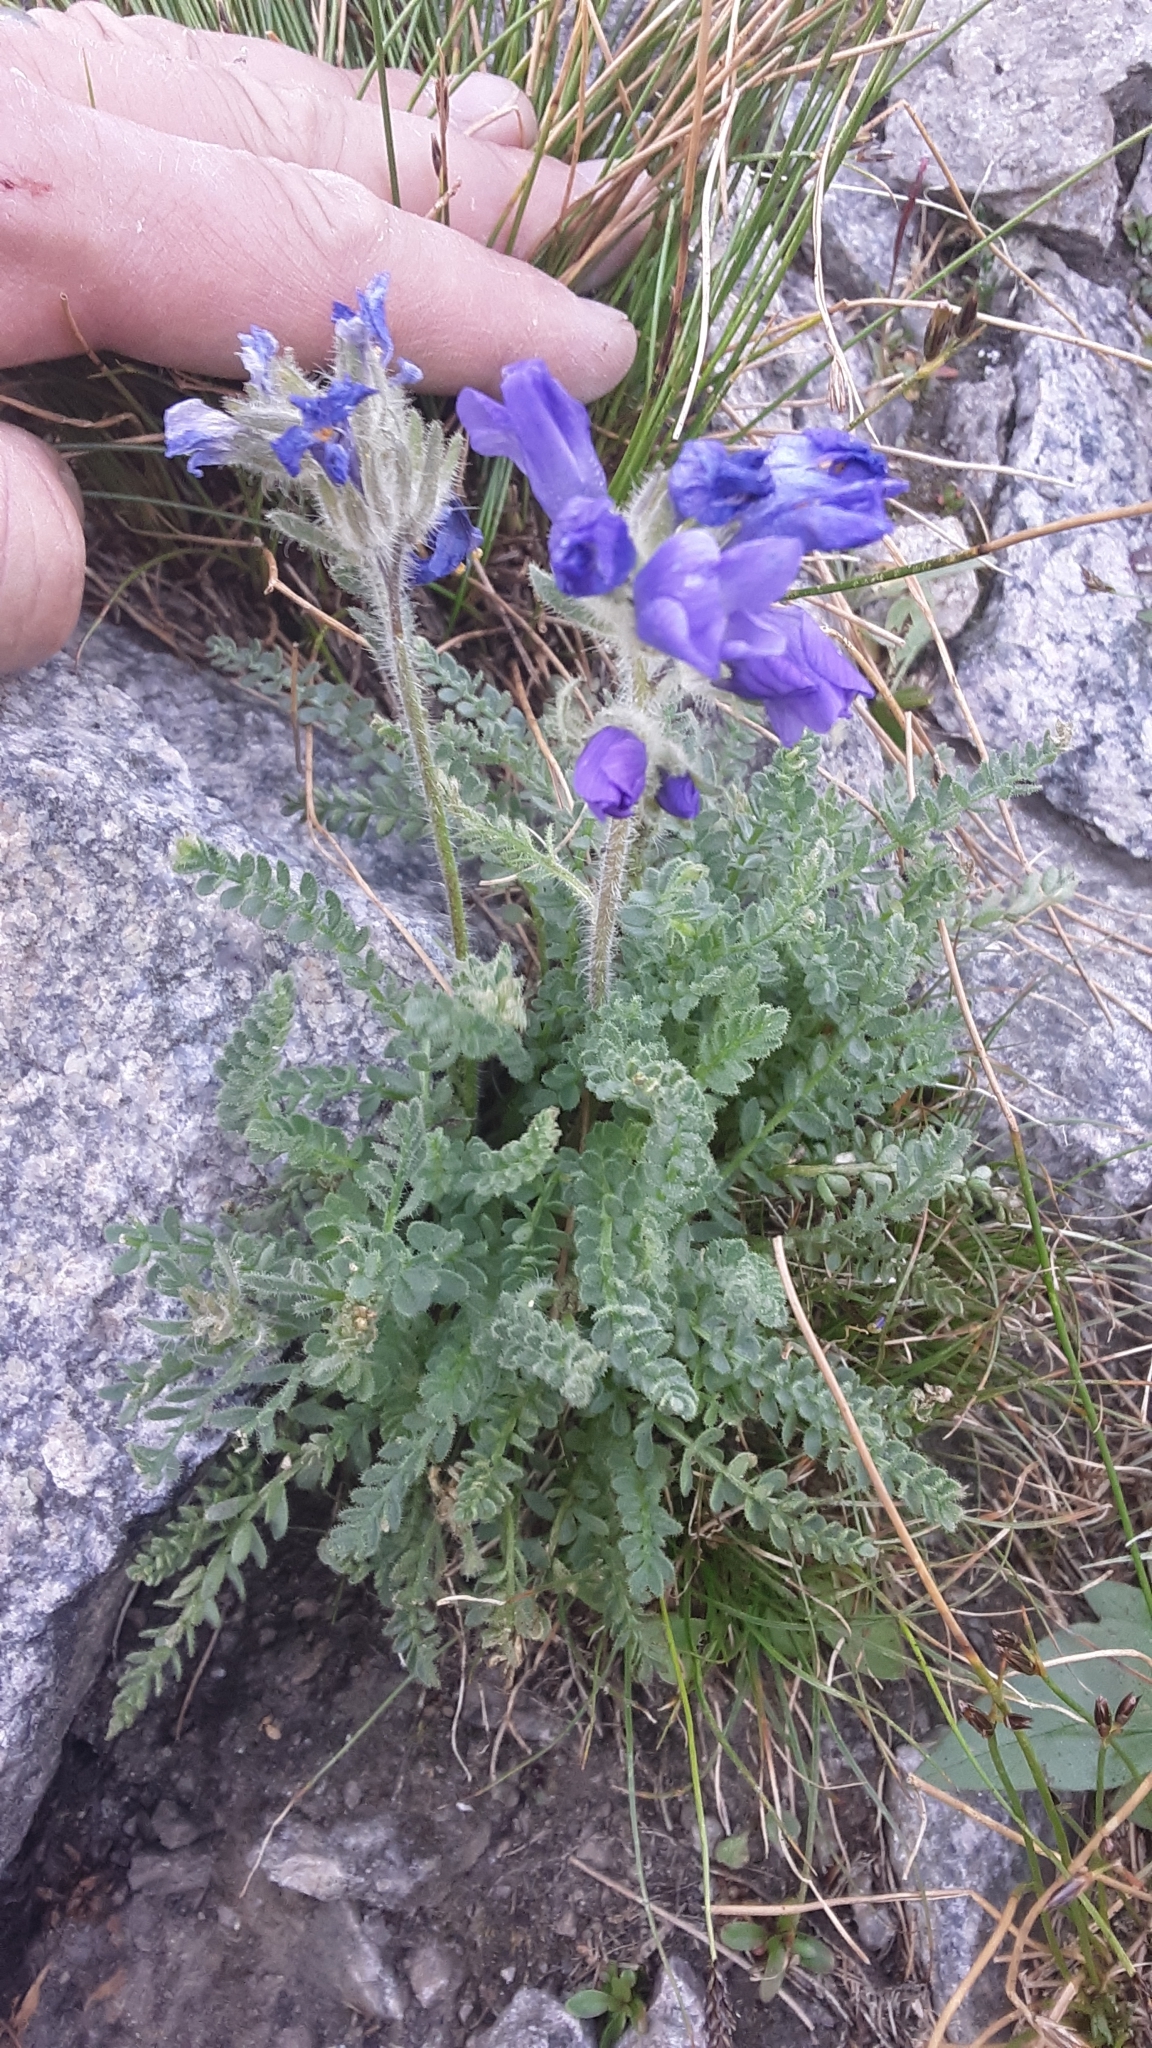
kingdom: Plantae
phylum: Tracheophyta
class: Magnoliopsida
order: Ericales
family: Polemoniaceae
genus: Polemonium
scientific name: Polemonium viscosum
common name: Skunk jacob's-ladder
